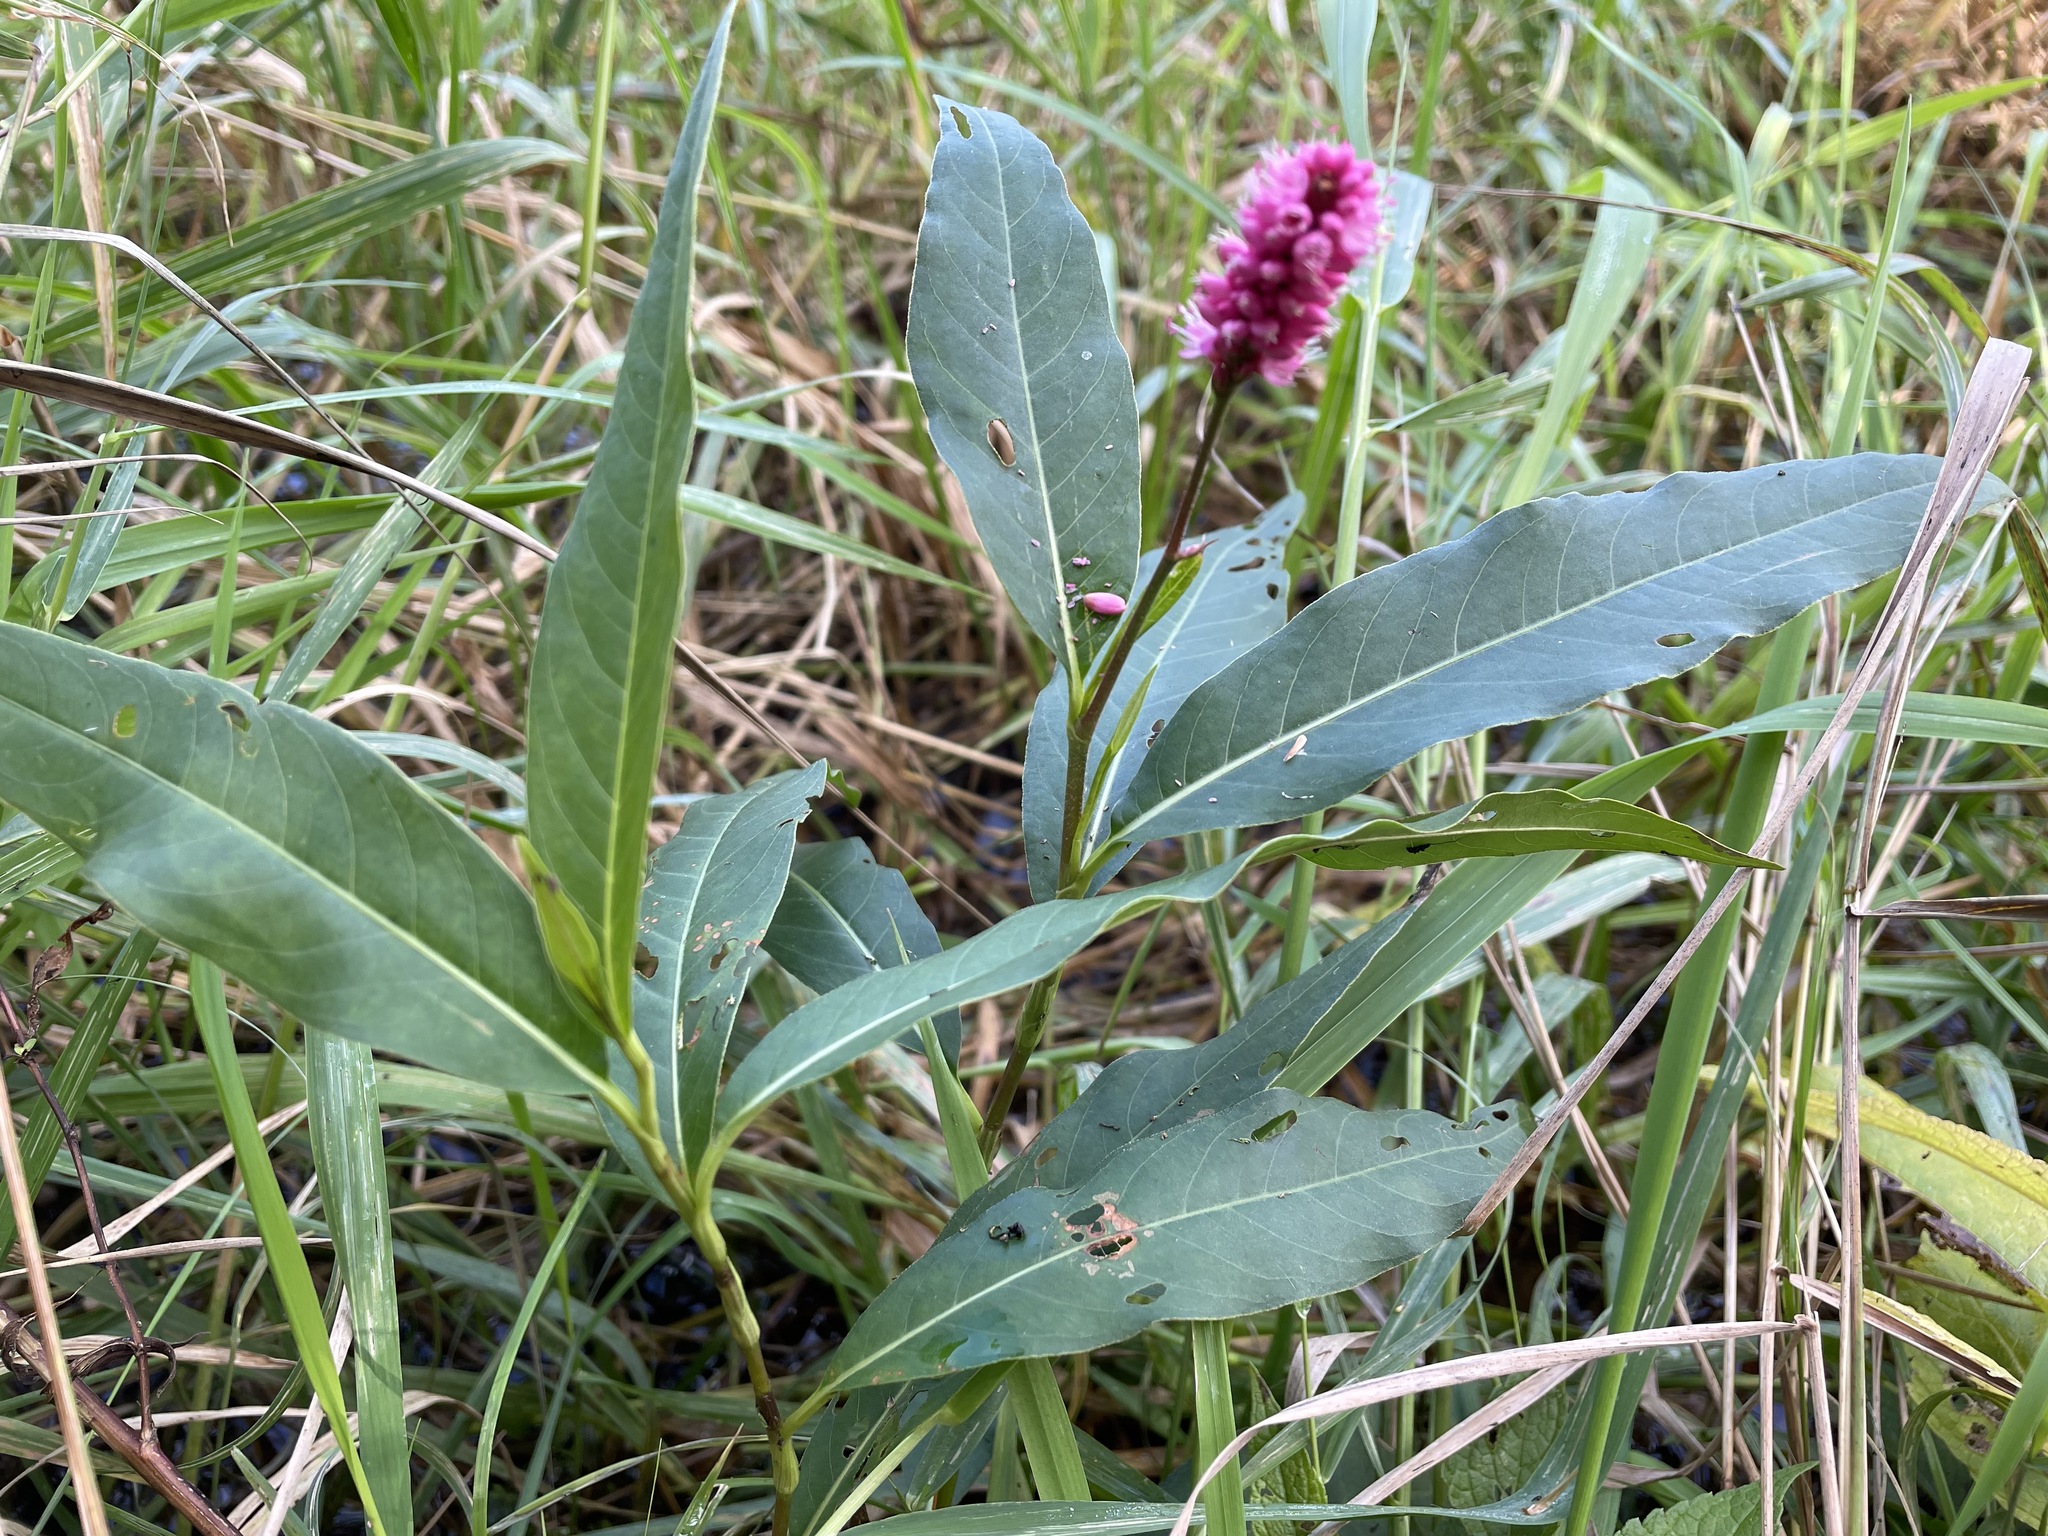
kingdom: Plantae
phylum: Tracheophyta
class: Magnoliopsida
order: Caryophyllales
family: Polygonaceae
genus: Persicaria
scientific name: Persicaria amphibia
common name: Amphibious bistort
